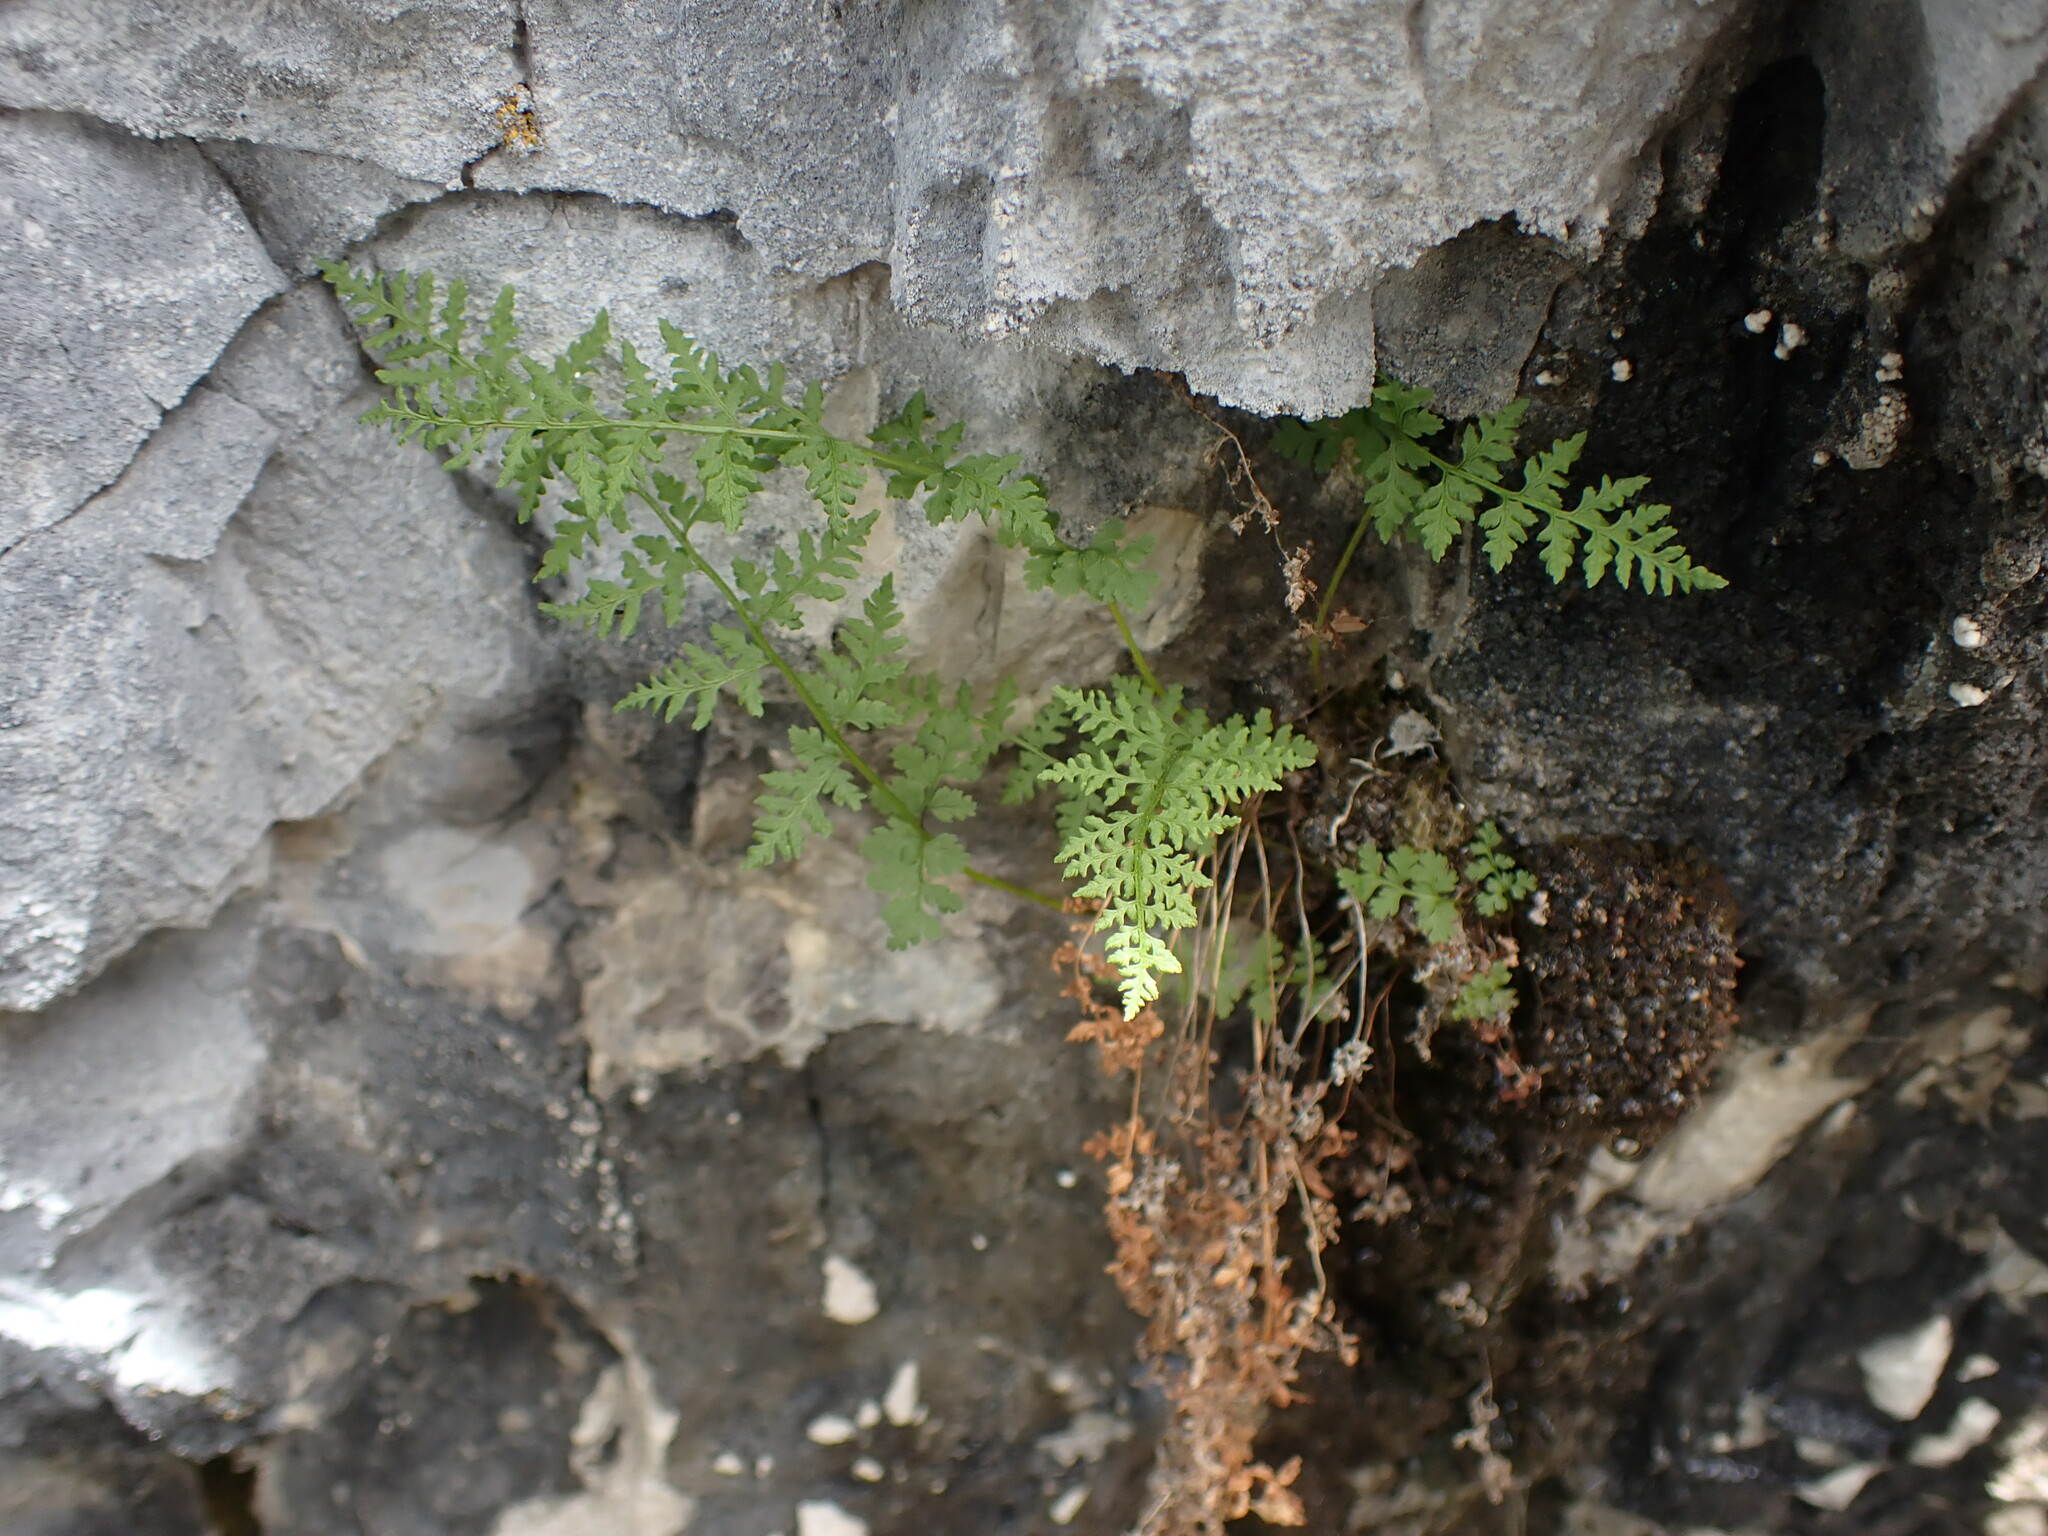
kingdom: Plantae
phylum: Tracheophyta
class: Polypodiopsida
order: Polypodiales
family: Cystopteridaceae
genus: Cystopteris
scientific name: Cystopteris fragilis
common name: Brittle bladder fern
